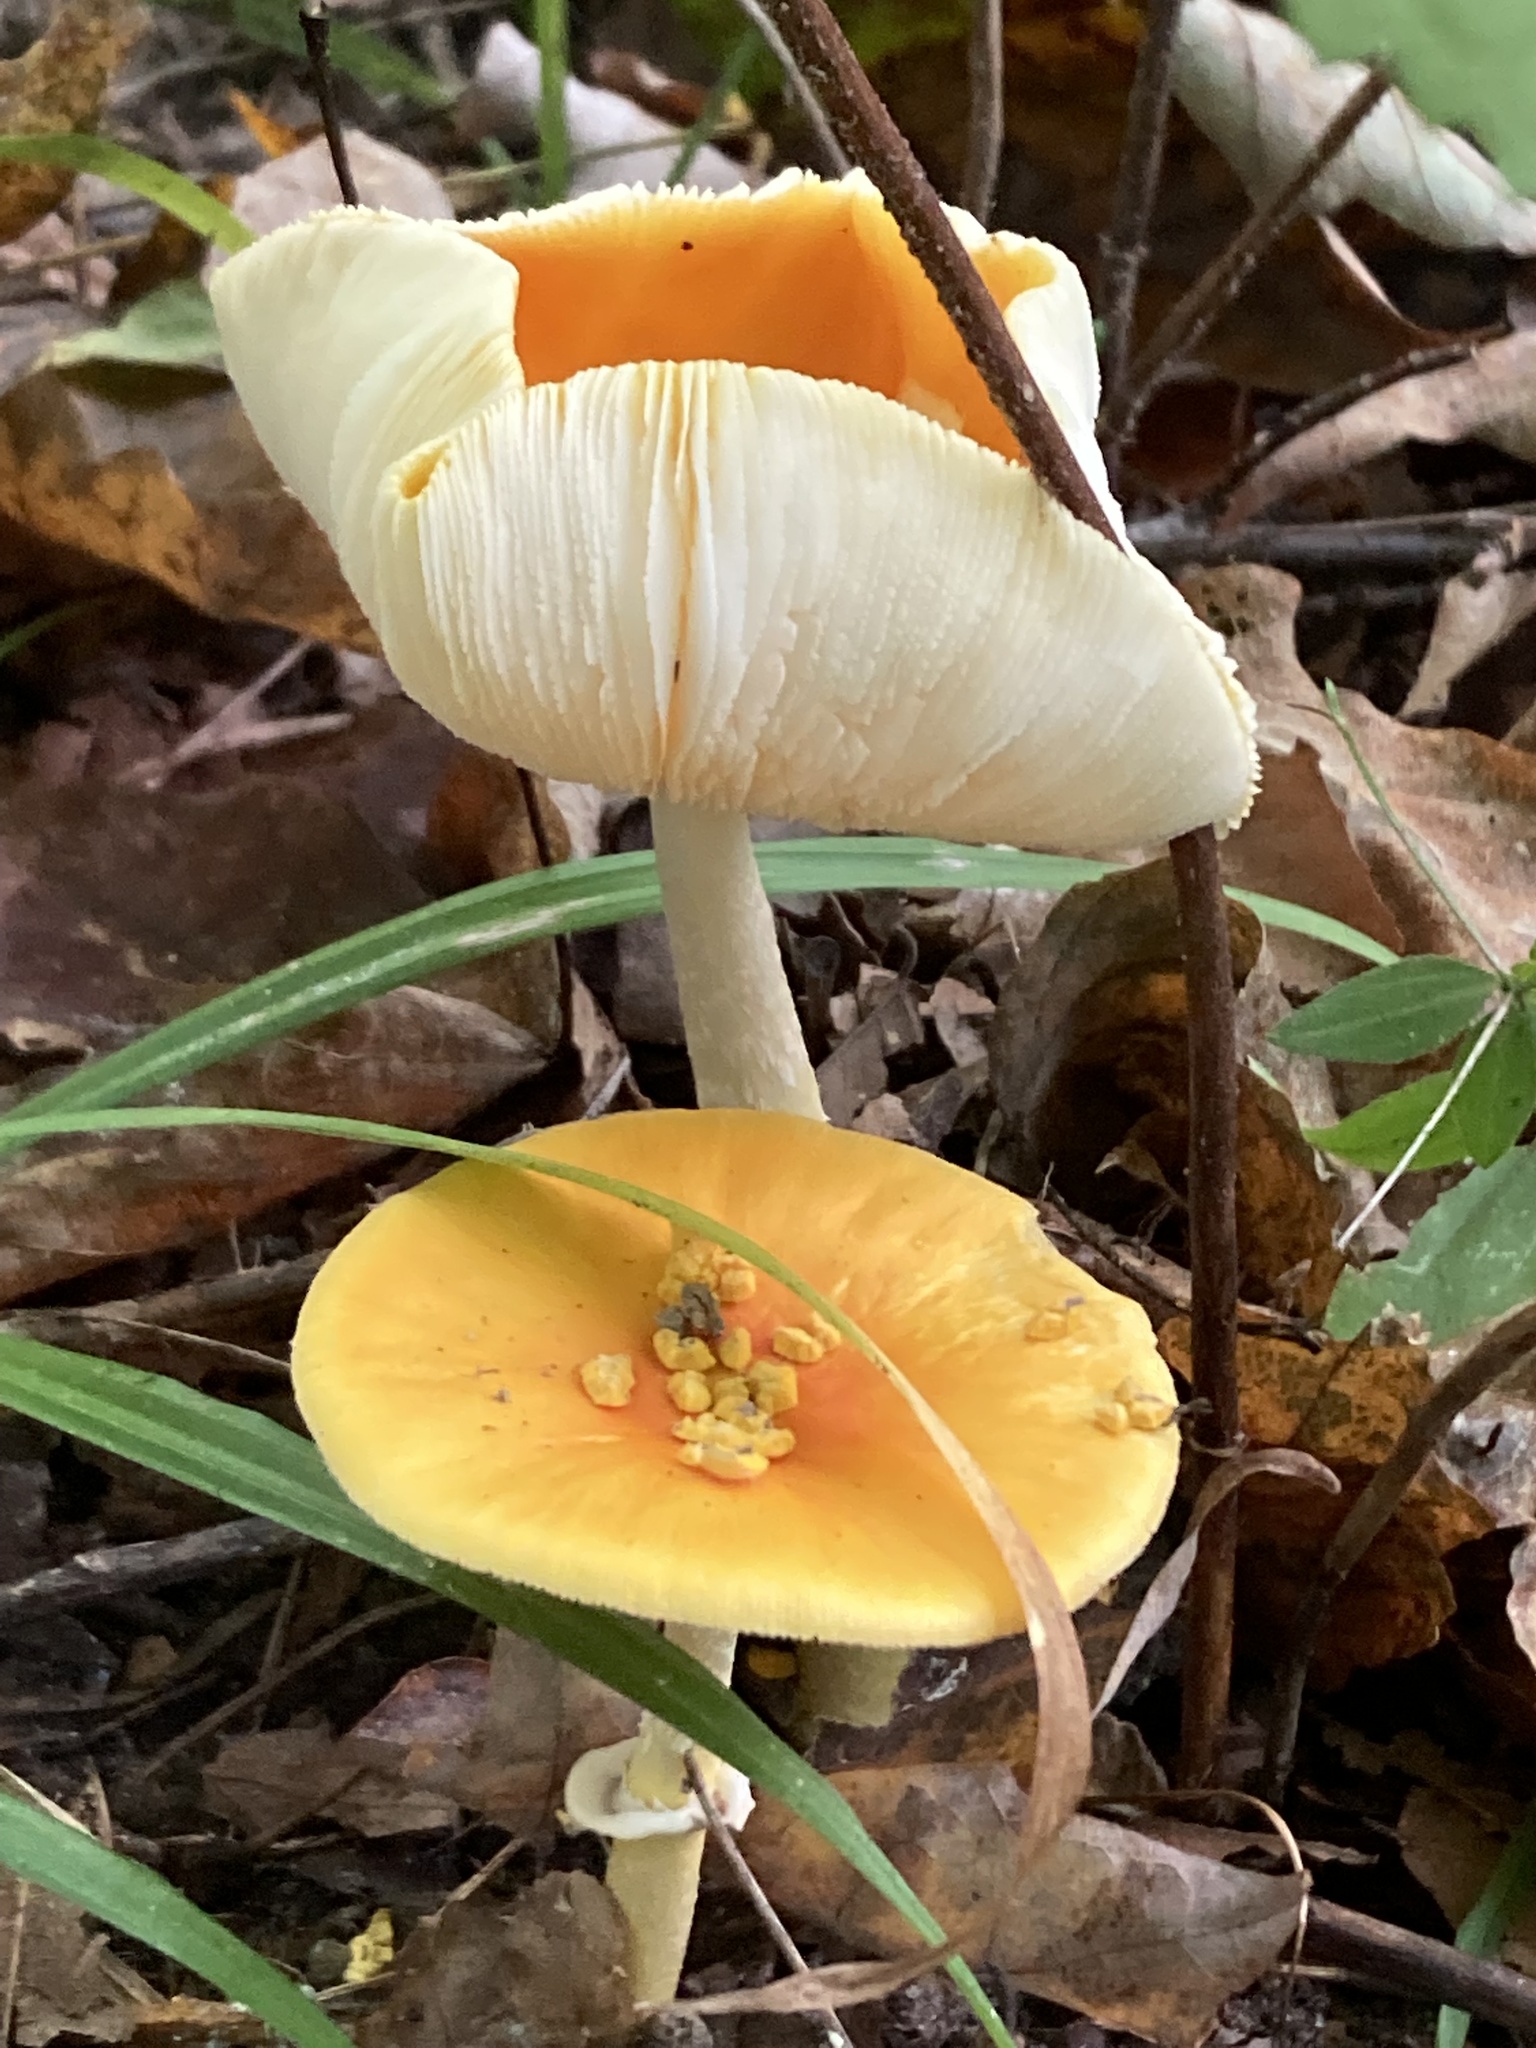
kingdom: Fungi
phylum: Basidiomycota
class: Agaricomycetes
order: Agaricales
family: Amanitaceae
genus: Amanita
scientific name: Amanita flavoconia
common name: Yellow patches
